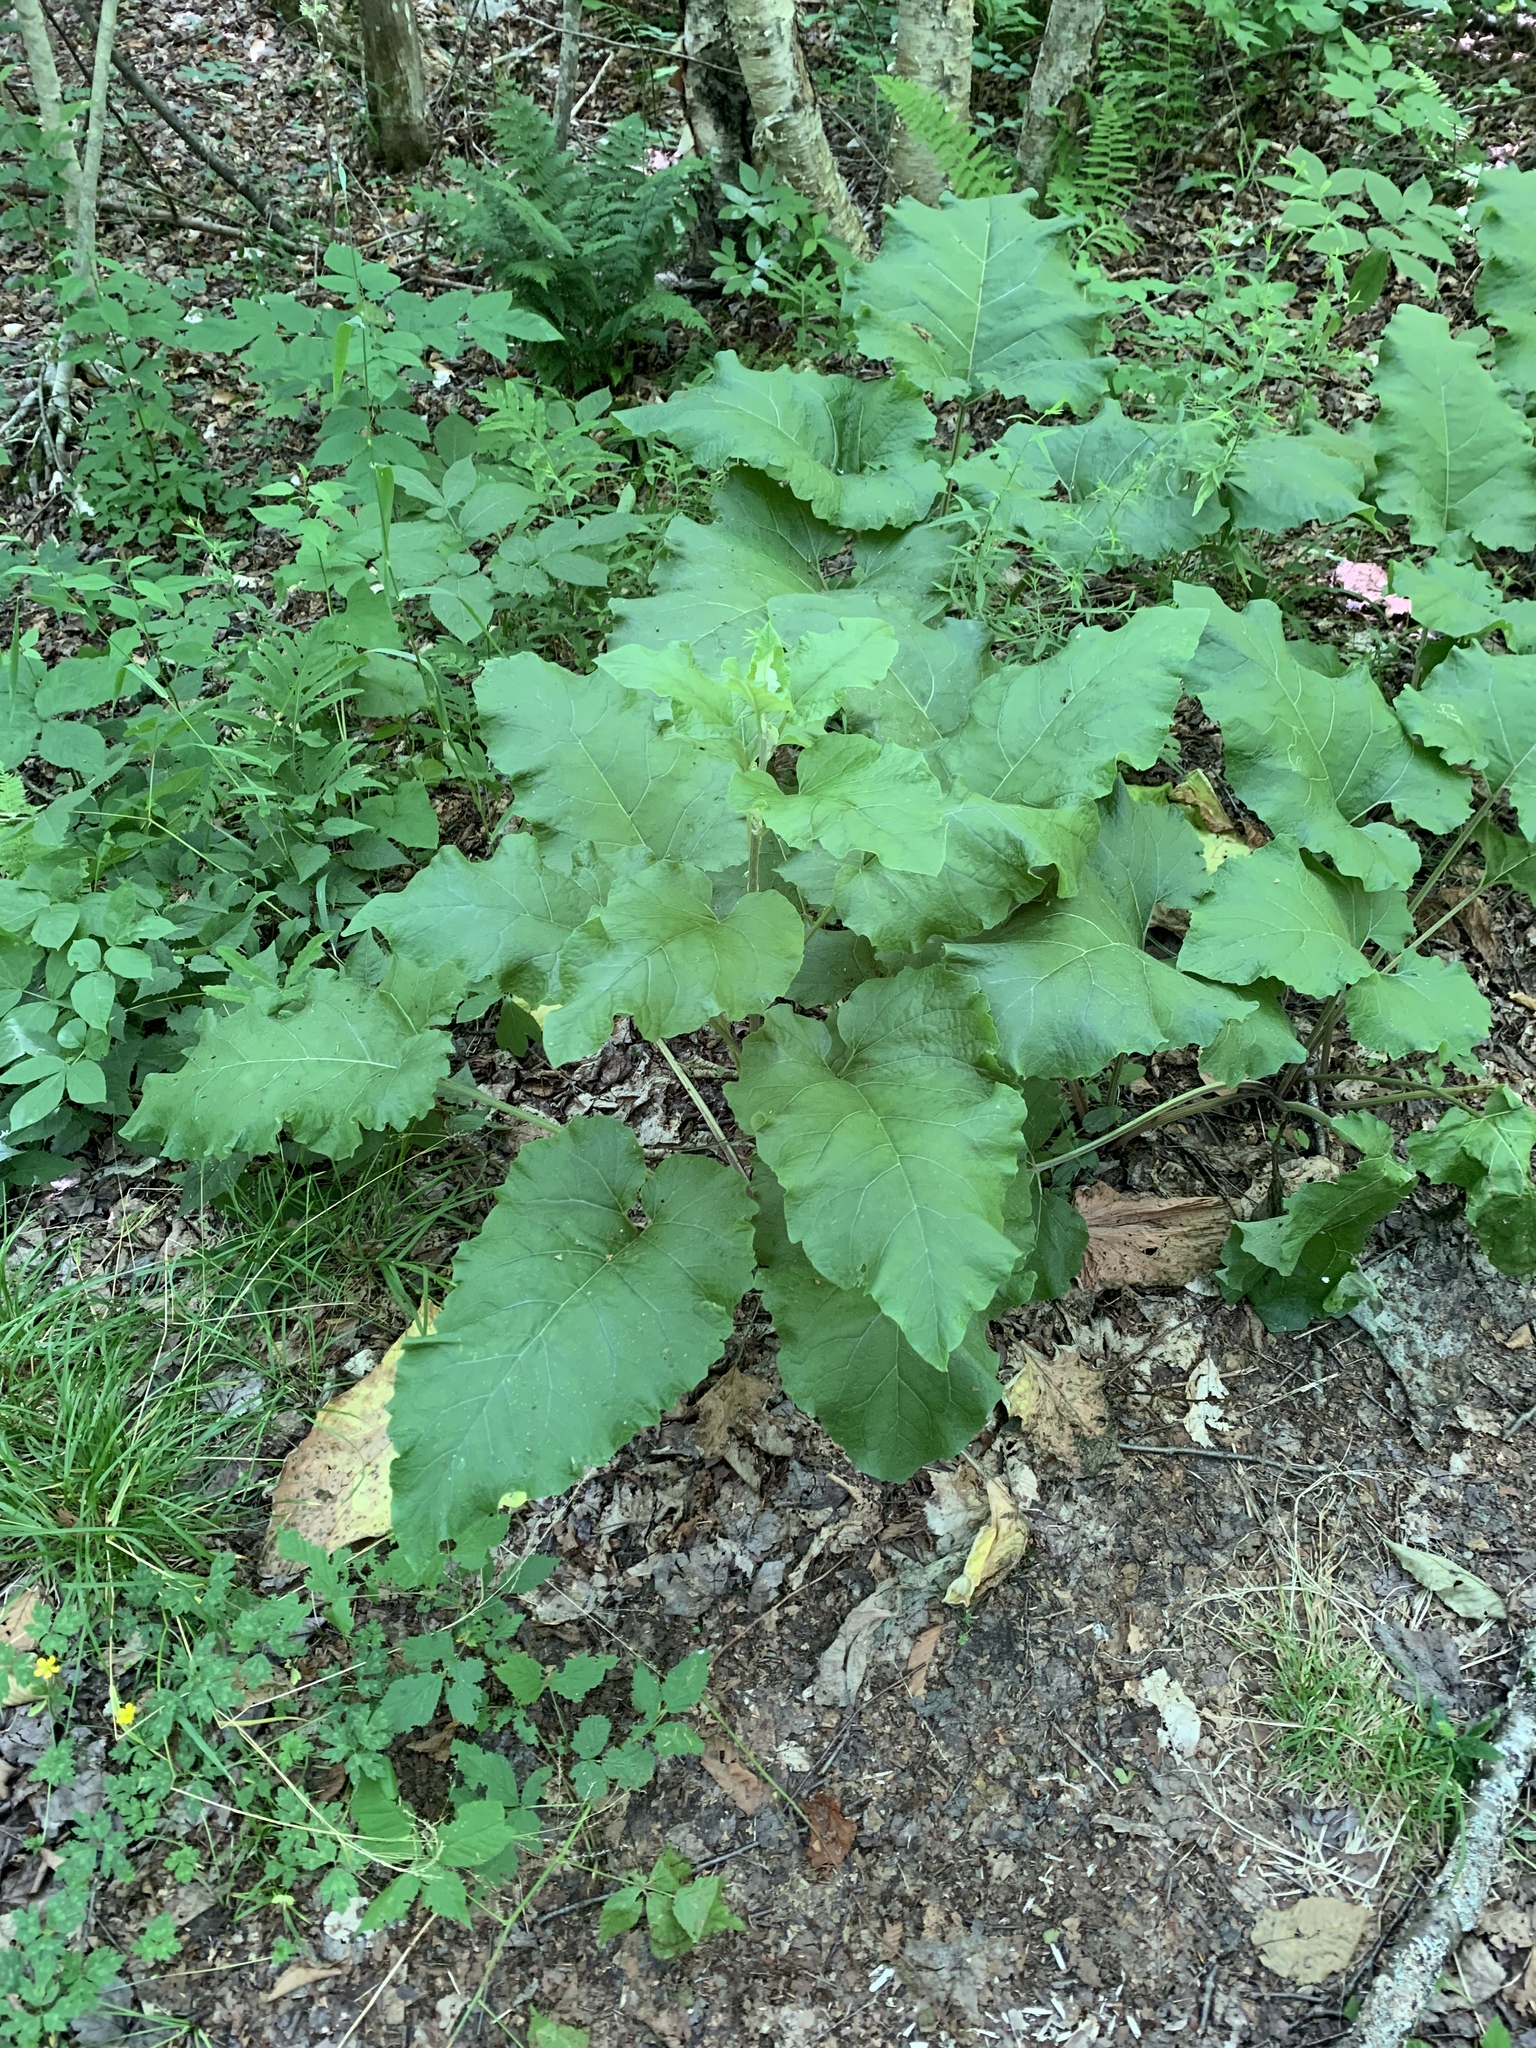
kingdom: Plantae
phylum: Tracheophyta
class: Magnoliopsida
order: Asterales
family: Asteraceae
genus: Arctium
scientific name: Arctium
